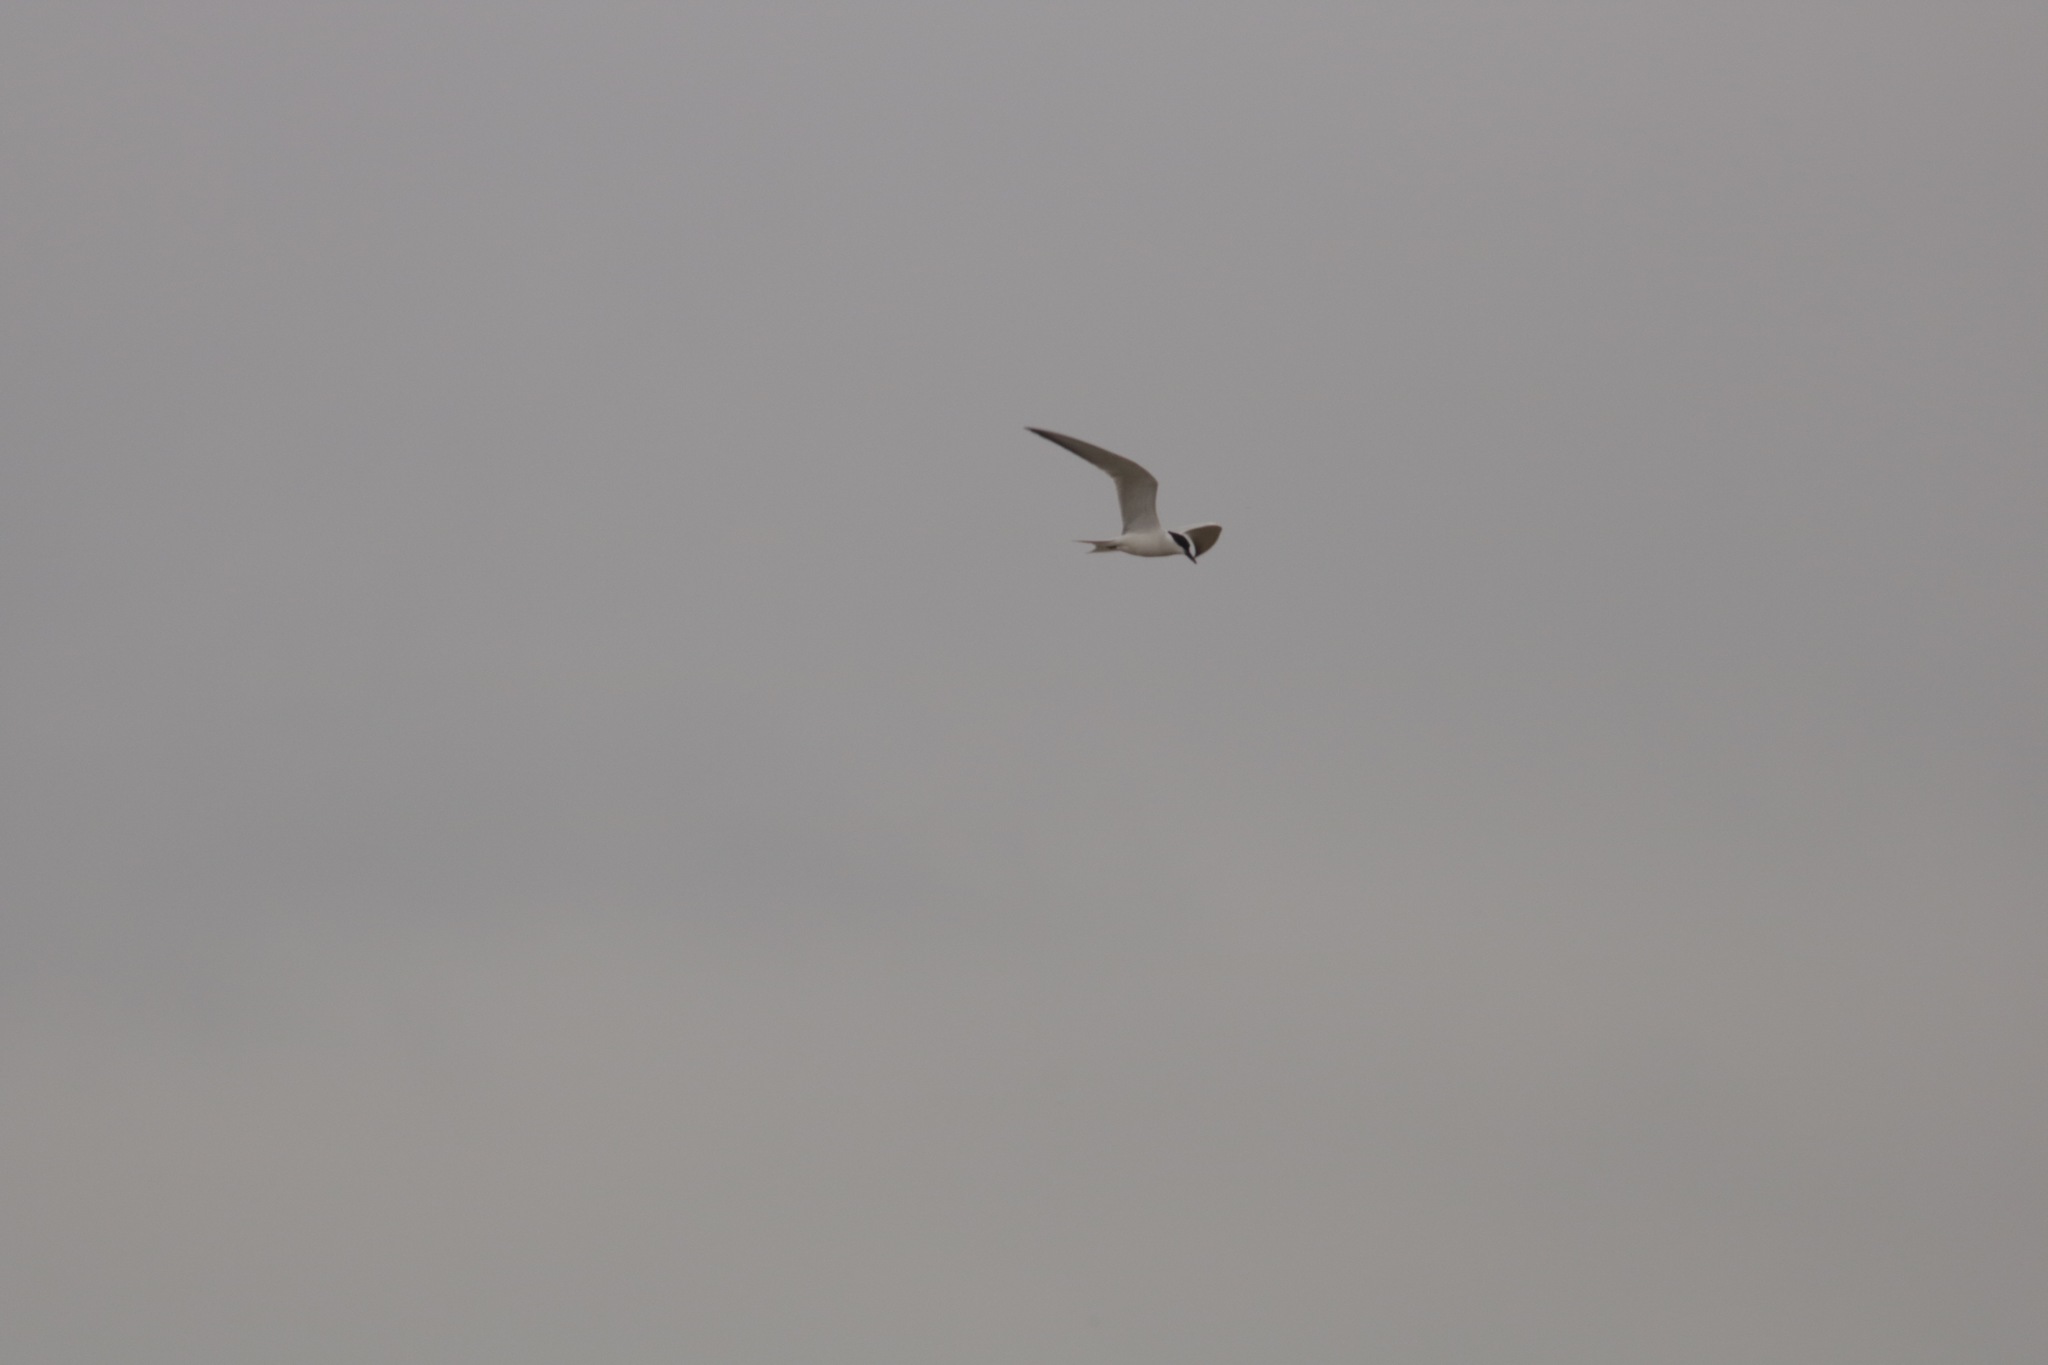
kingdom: Animalia
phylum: Chordata
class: Aves
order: Charadriiformes
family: Laridae
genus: Gelochelidon
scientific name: Gelochelidon nilotica
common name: Gull-billed tern
